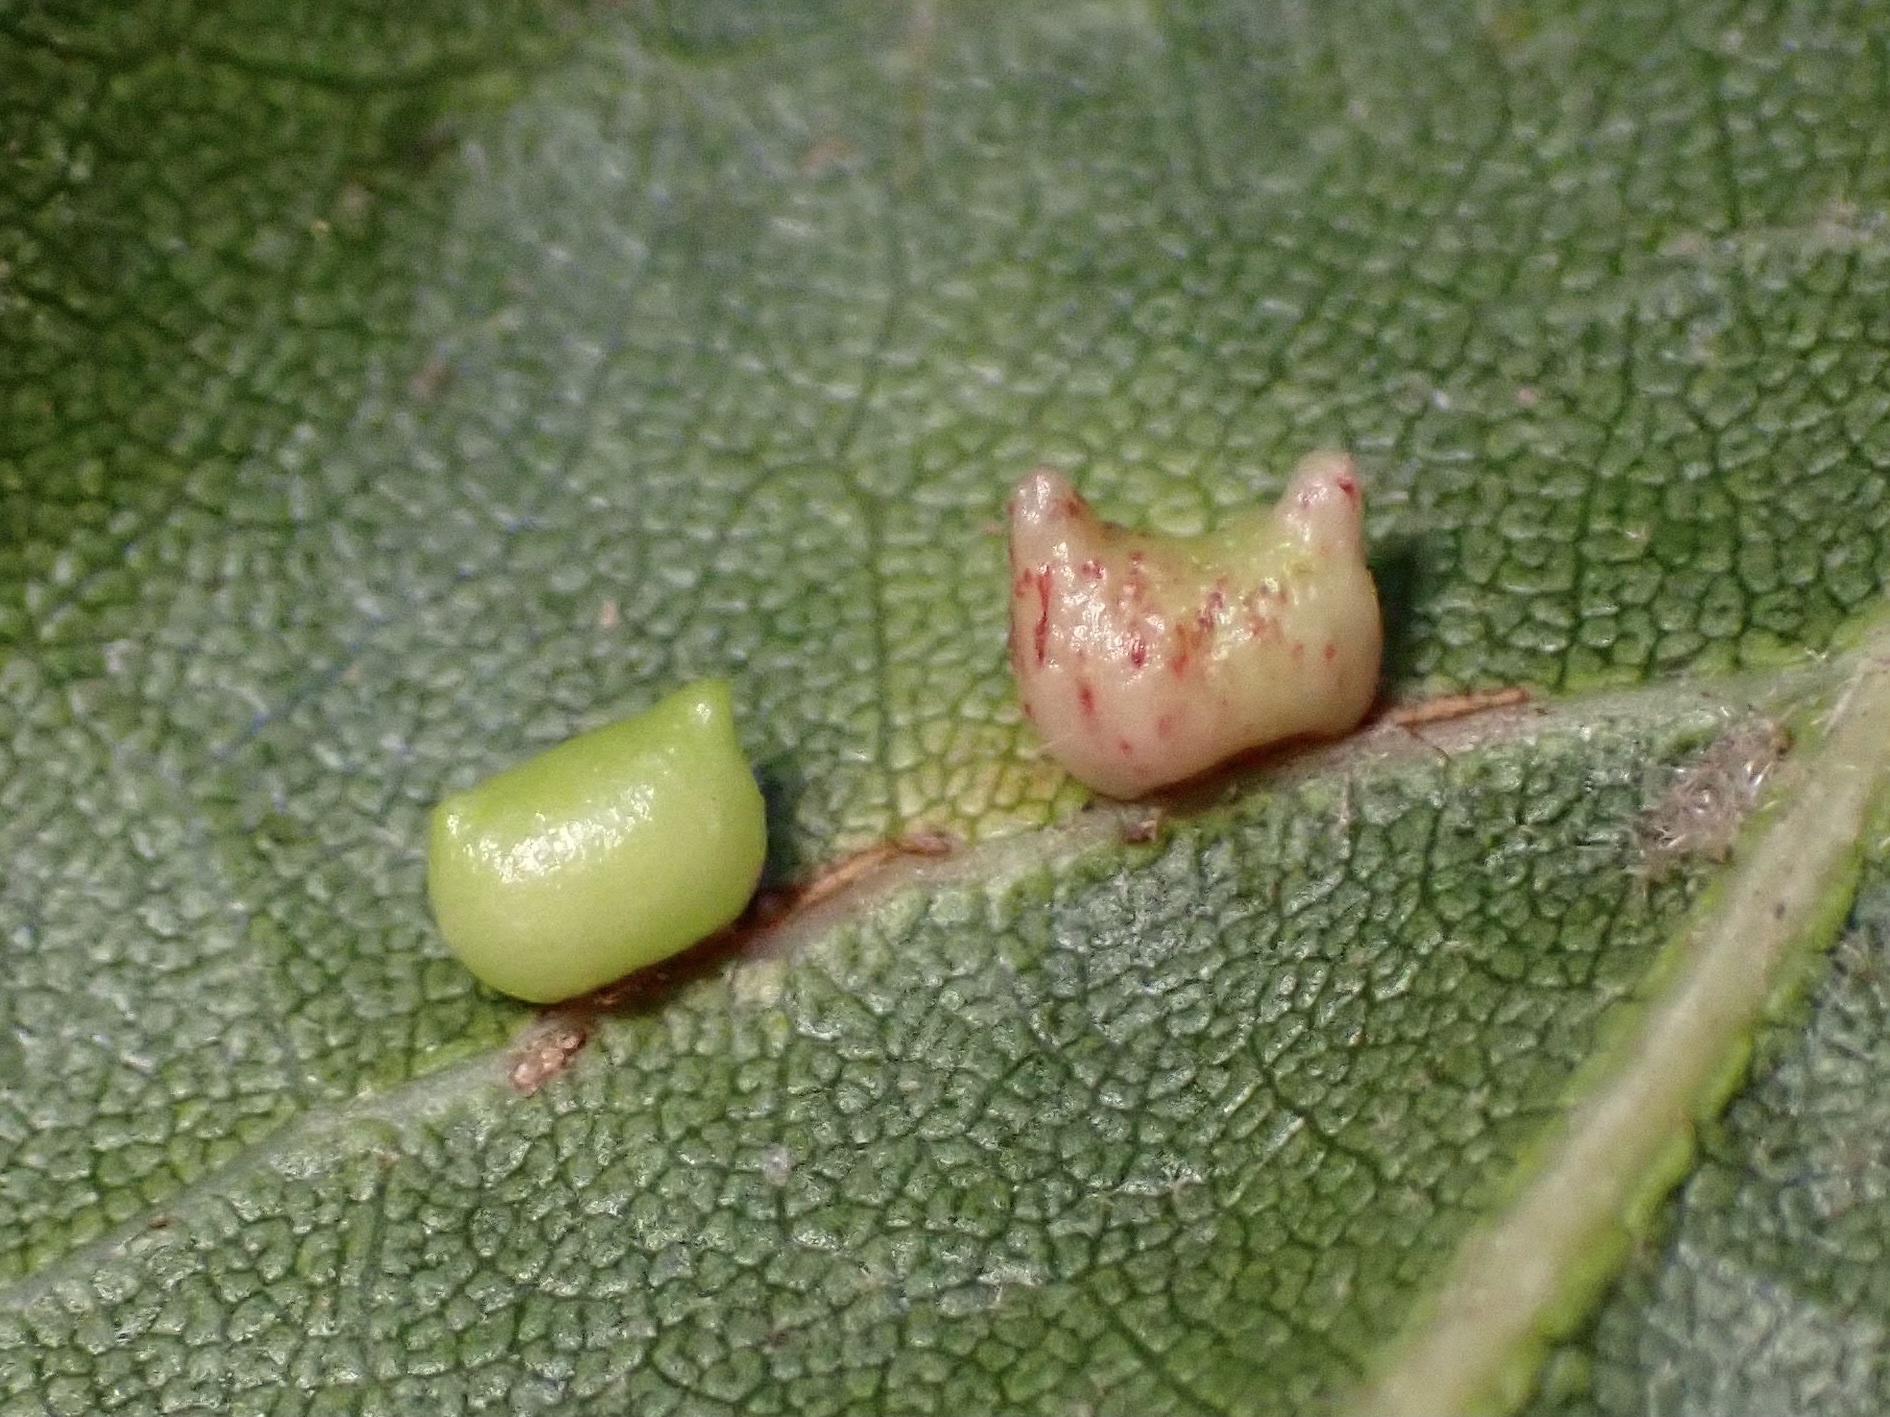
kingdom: Animalia
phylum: Arthropoda
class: Insecta
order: Hymenoptera
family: Cynipidae
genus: Dryocosmus
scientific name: Dryocosmus
